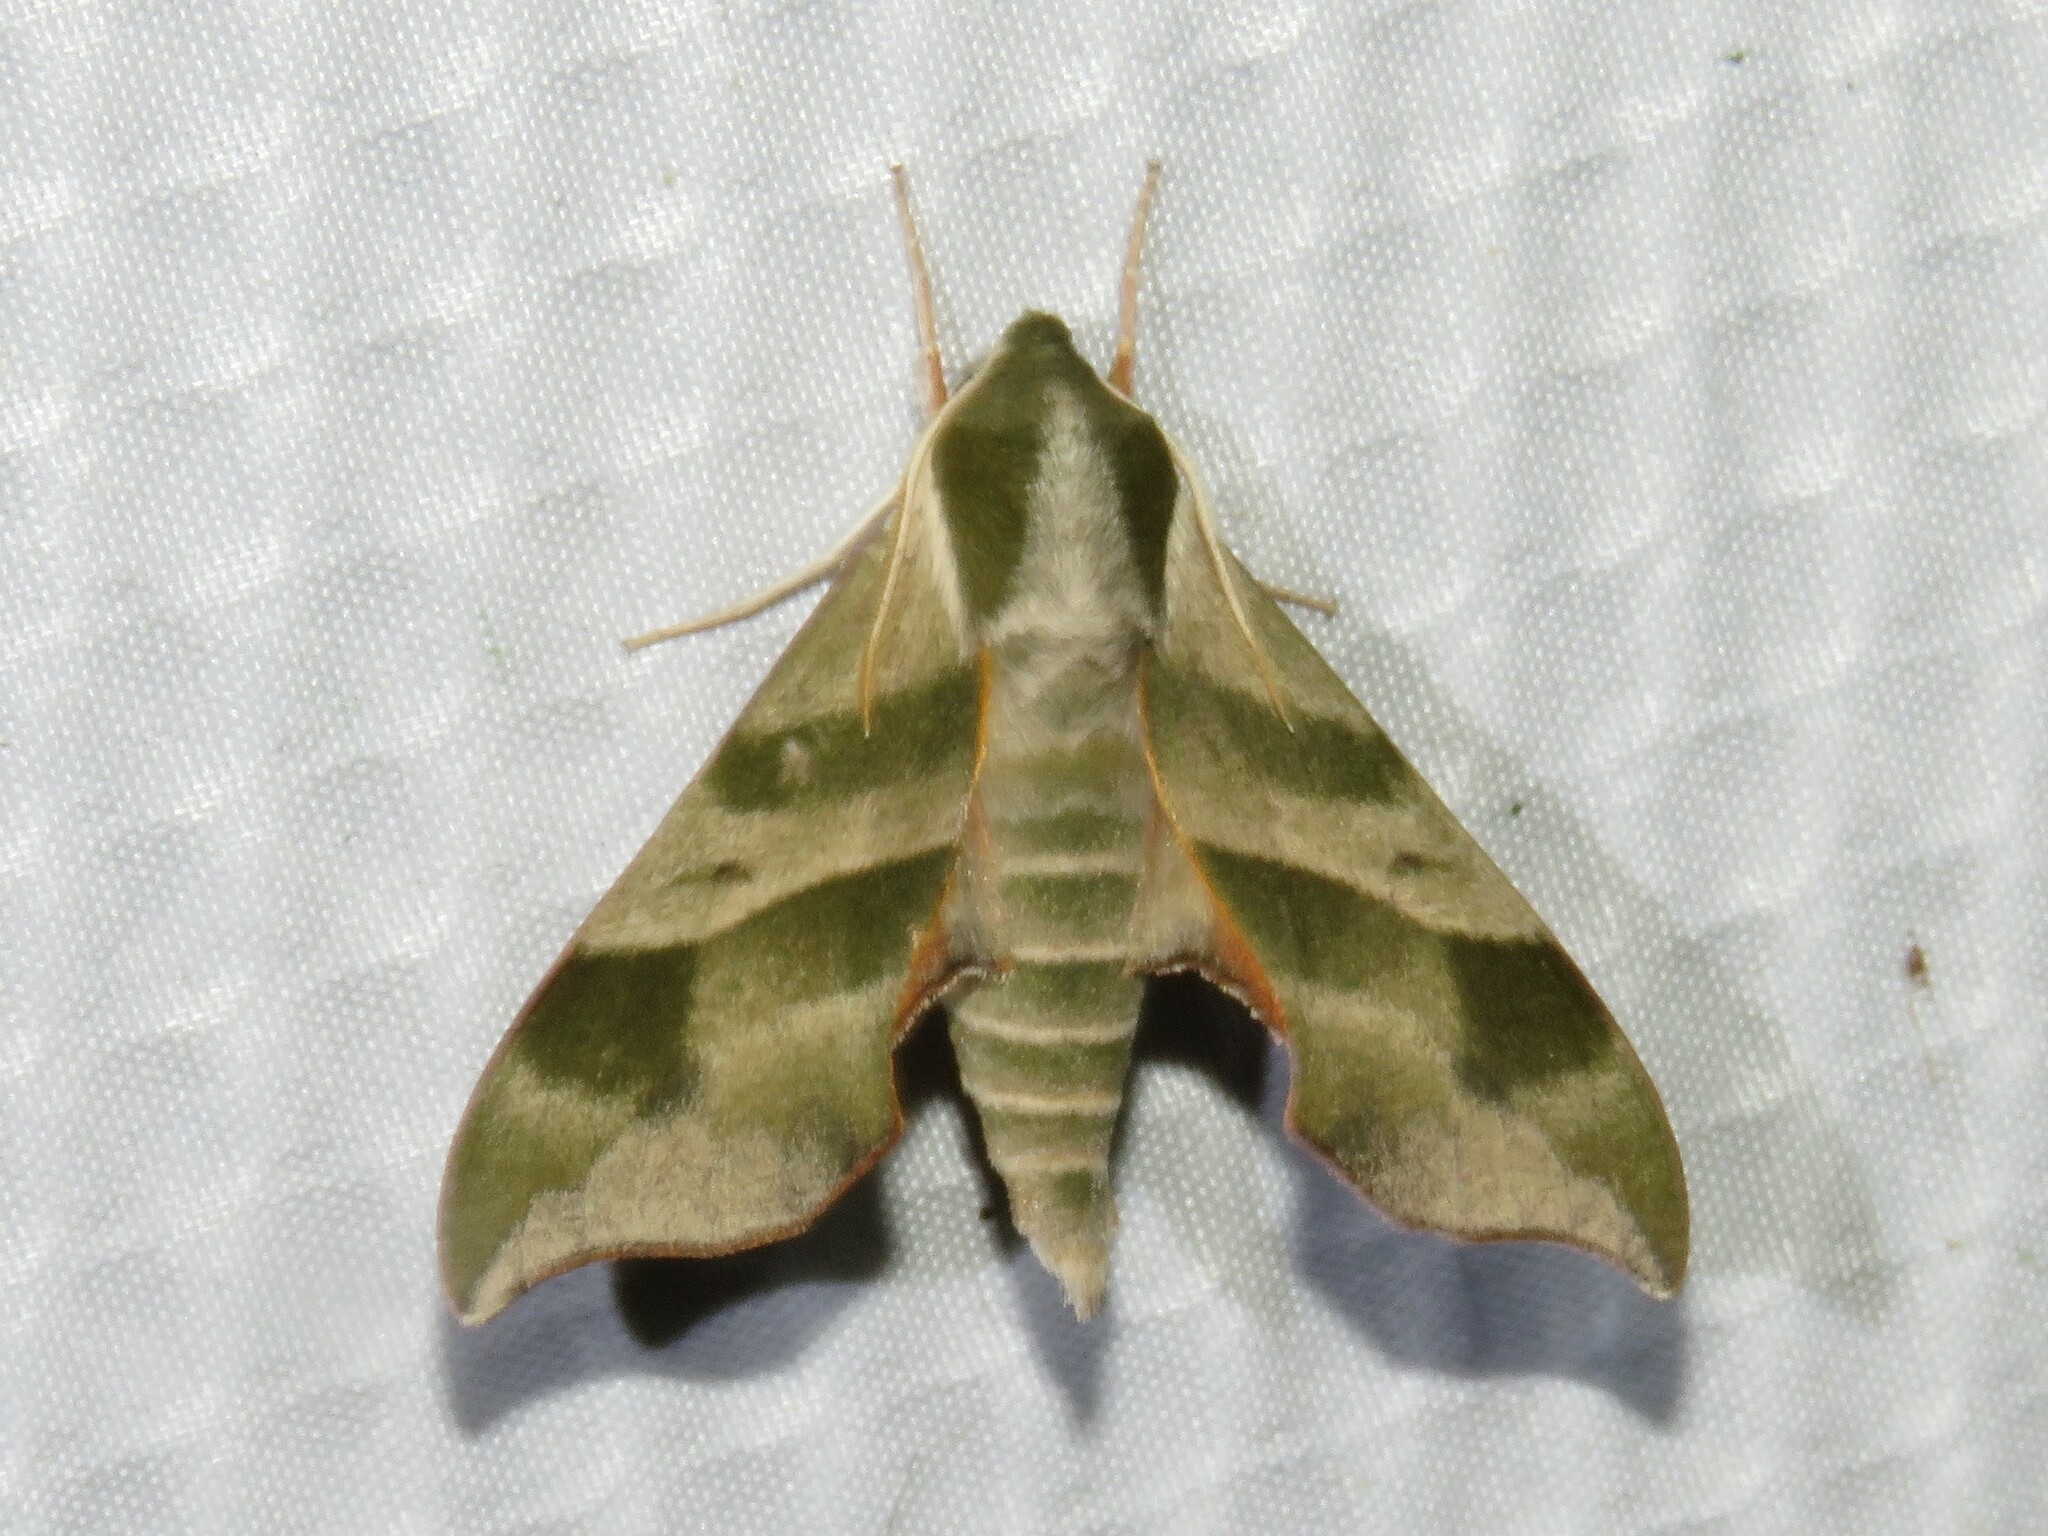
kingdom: Animalia
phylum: Arthropoda
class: Insecta
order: Lepidoptera
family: Sphingidae
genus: Darapsa
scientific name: Darapsa myron
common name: Hog sphinx
